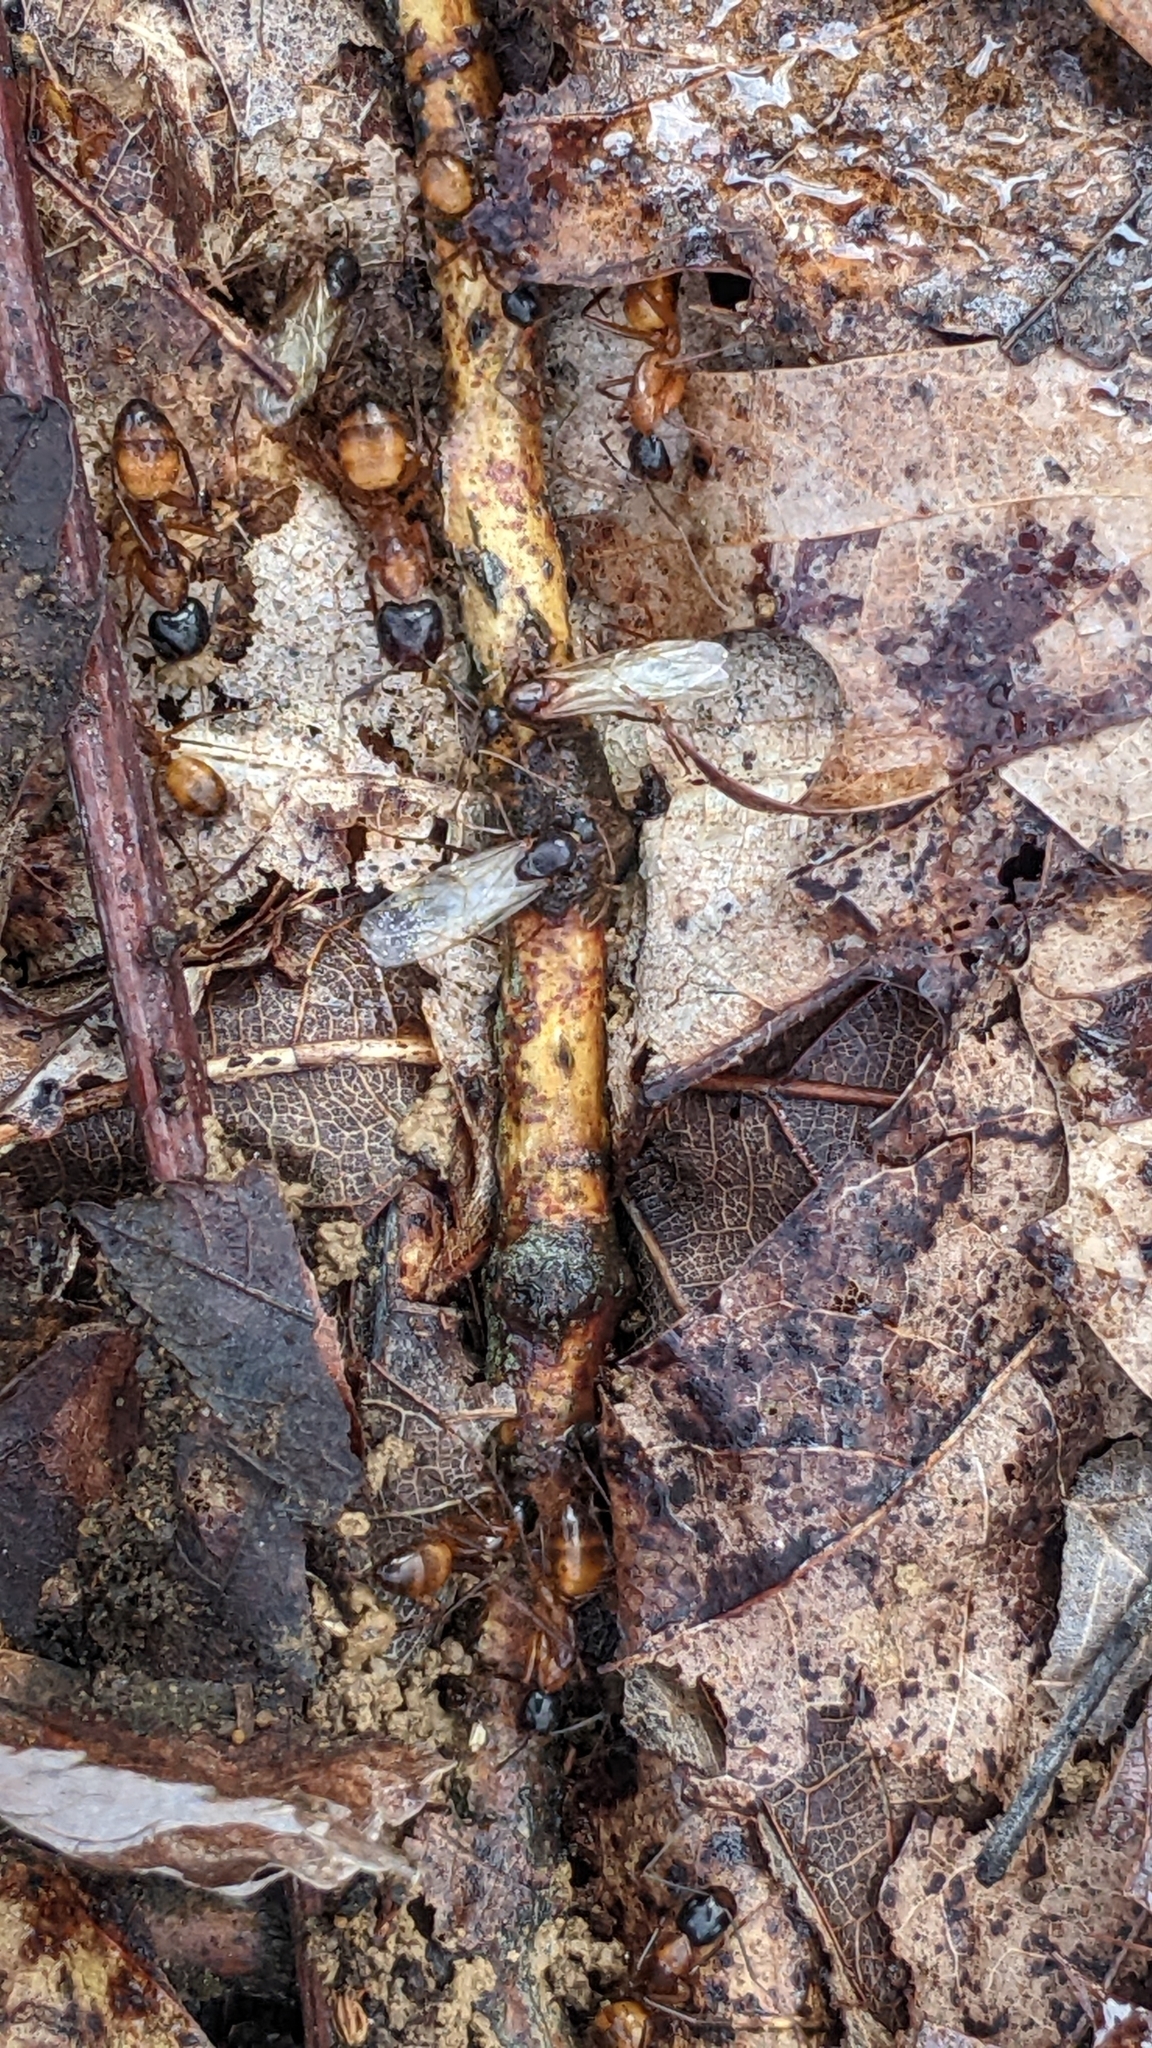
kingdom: Animalia
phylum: Arthropoda
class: Insecta
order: Hymenoptera
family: Formicidae
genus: Camponotus
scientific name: Camponotus americanus
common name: American carpenter ant
